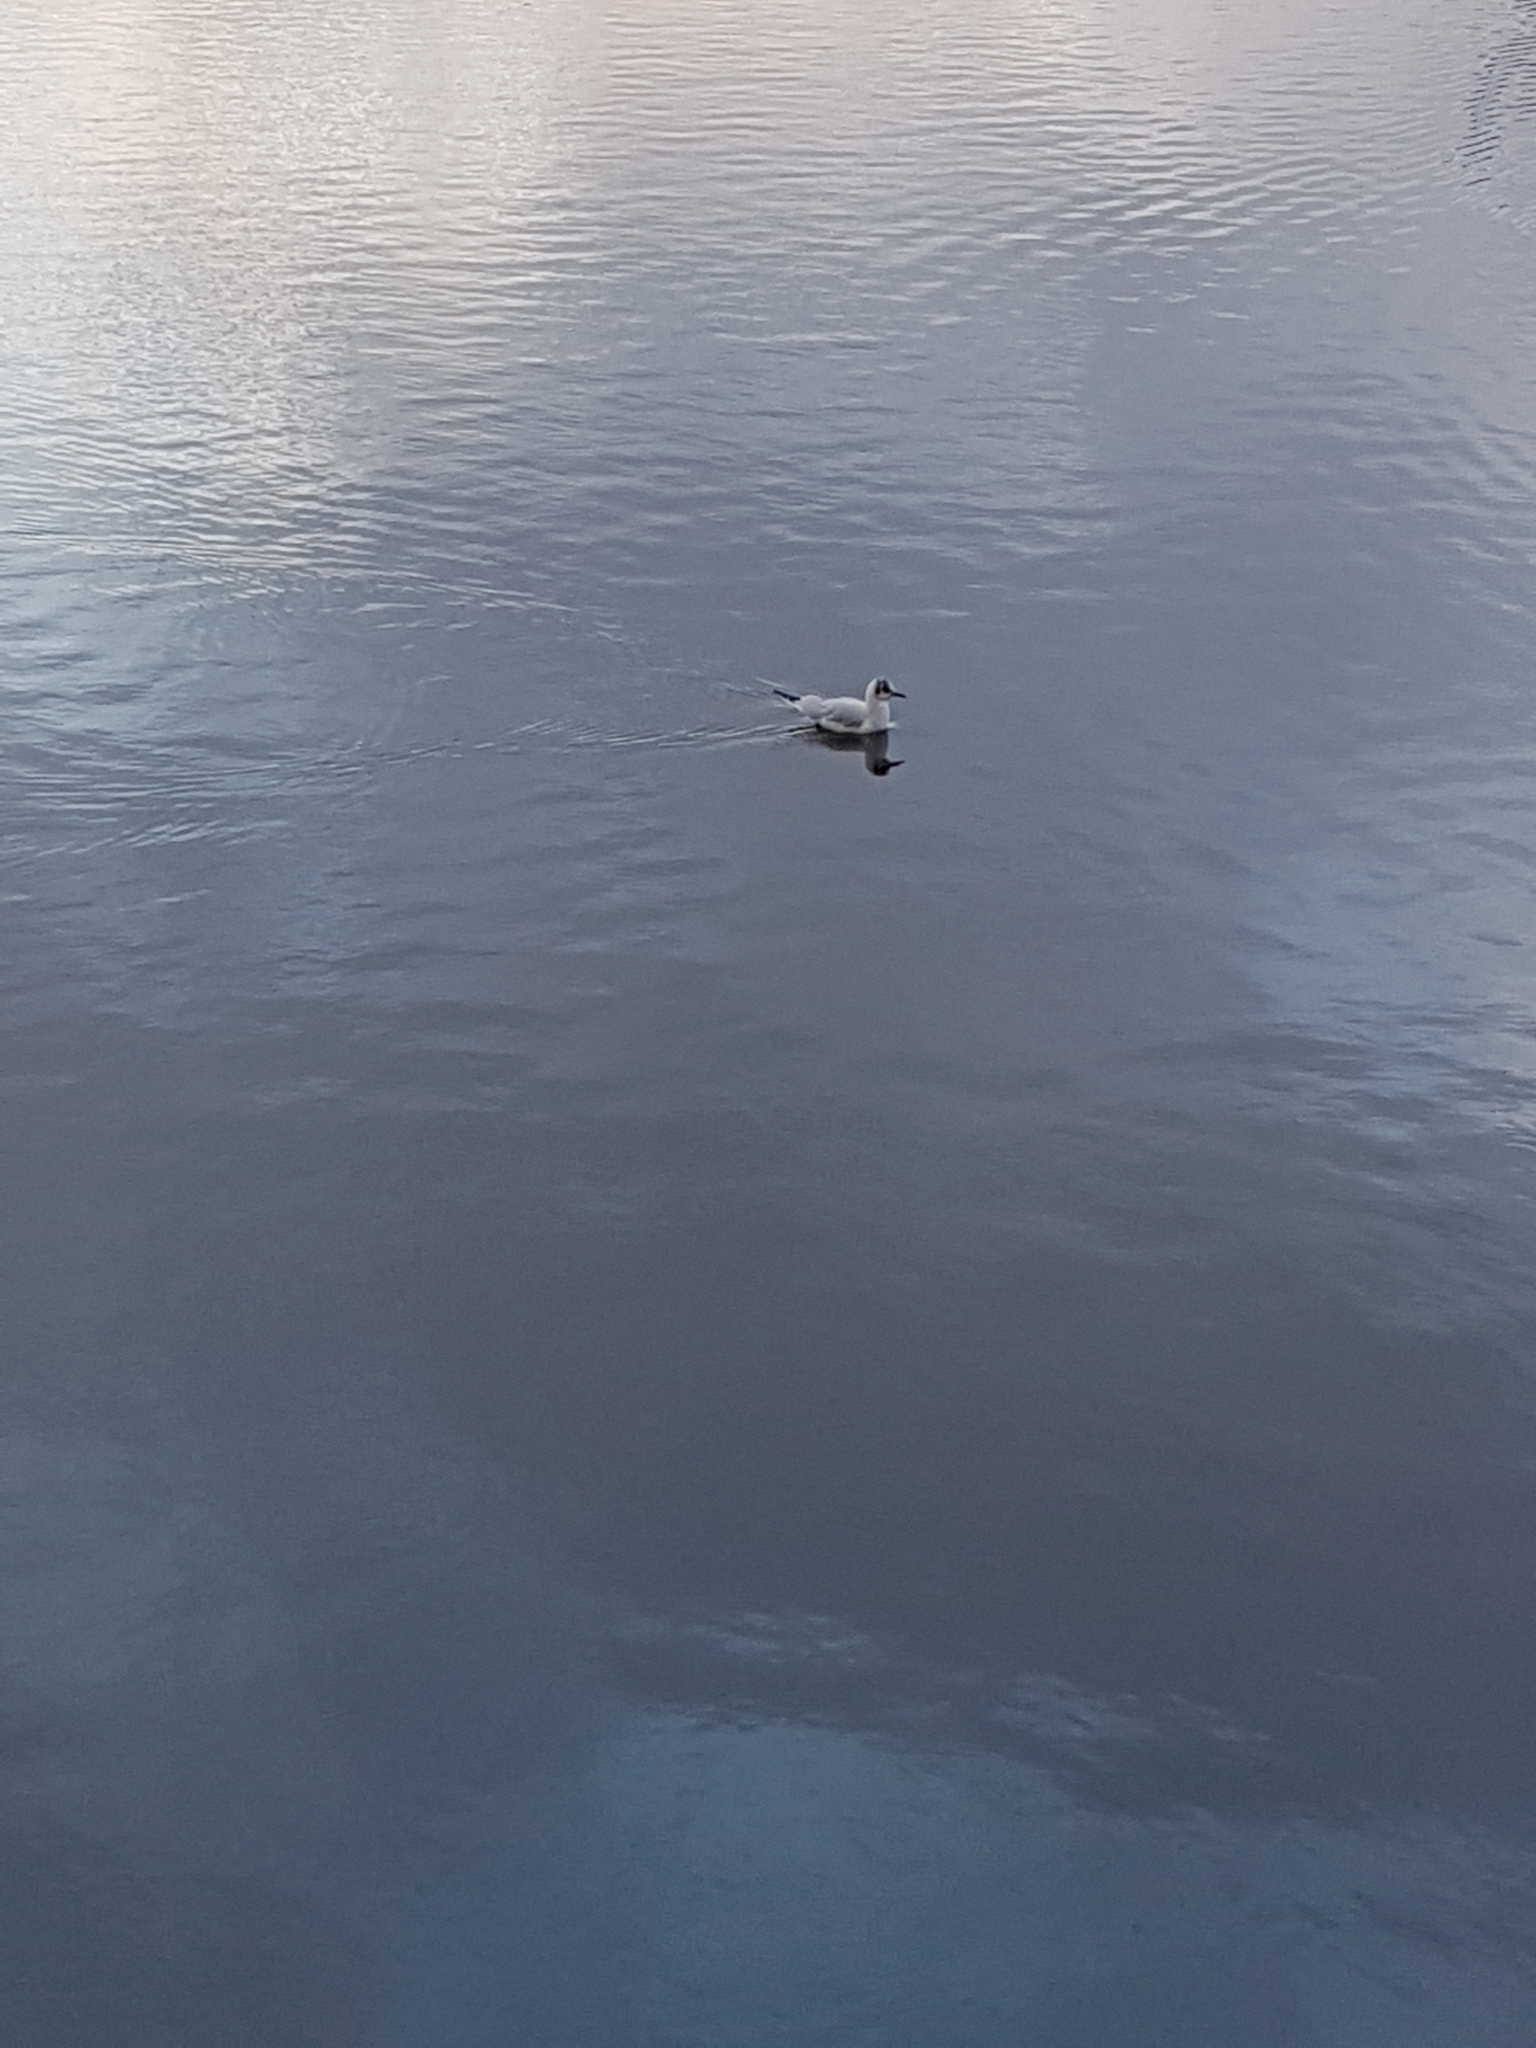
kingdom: Animalia
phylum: Chordata
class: Aves
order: Charadriiformes
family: Laridae
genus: Chroicocephalus
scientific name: Chroicocephalus ridibundus
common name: Black-headed gull
